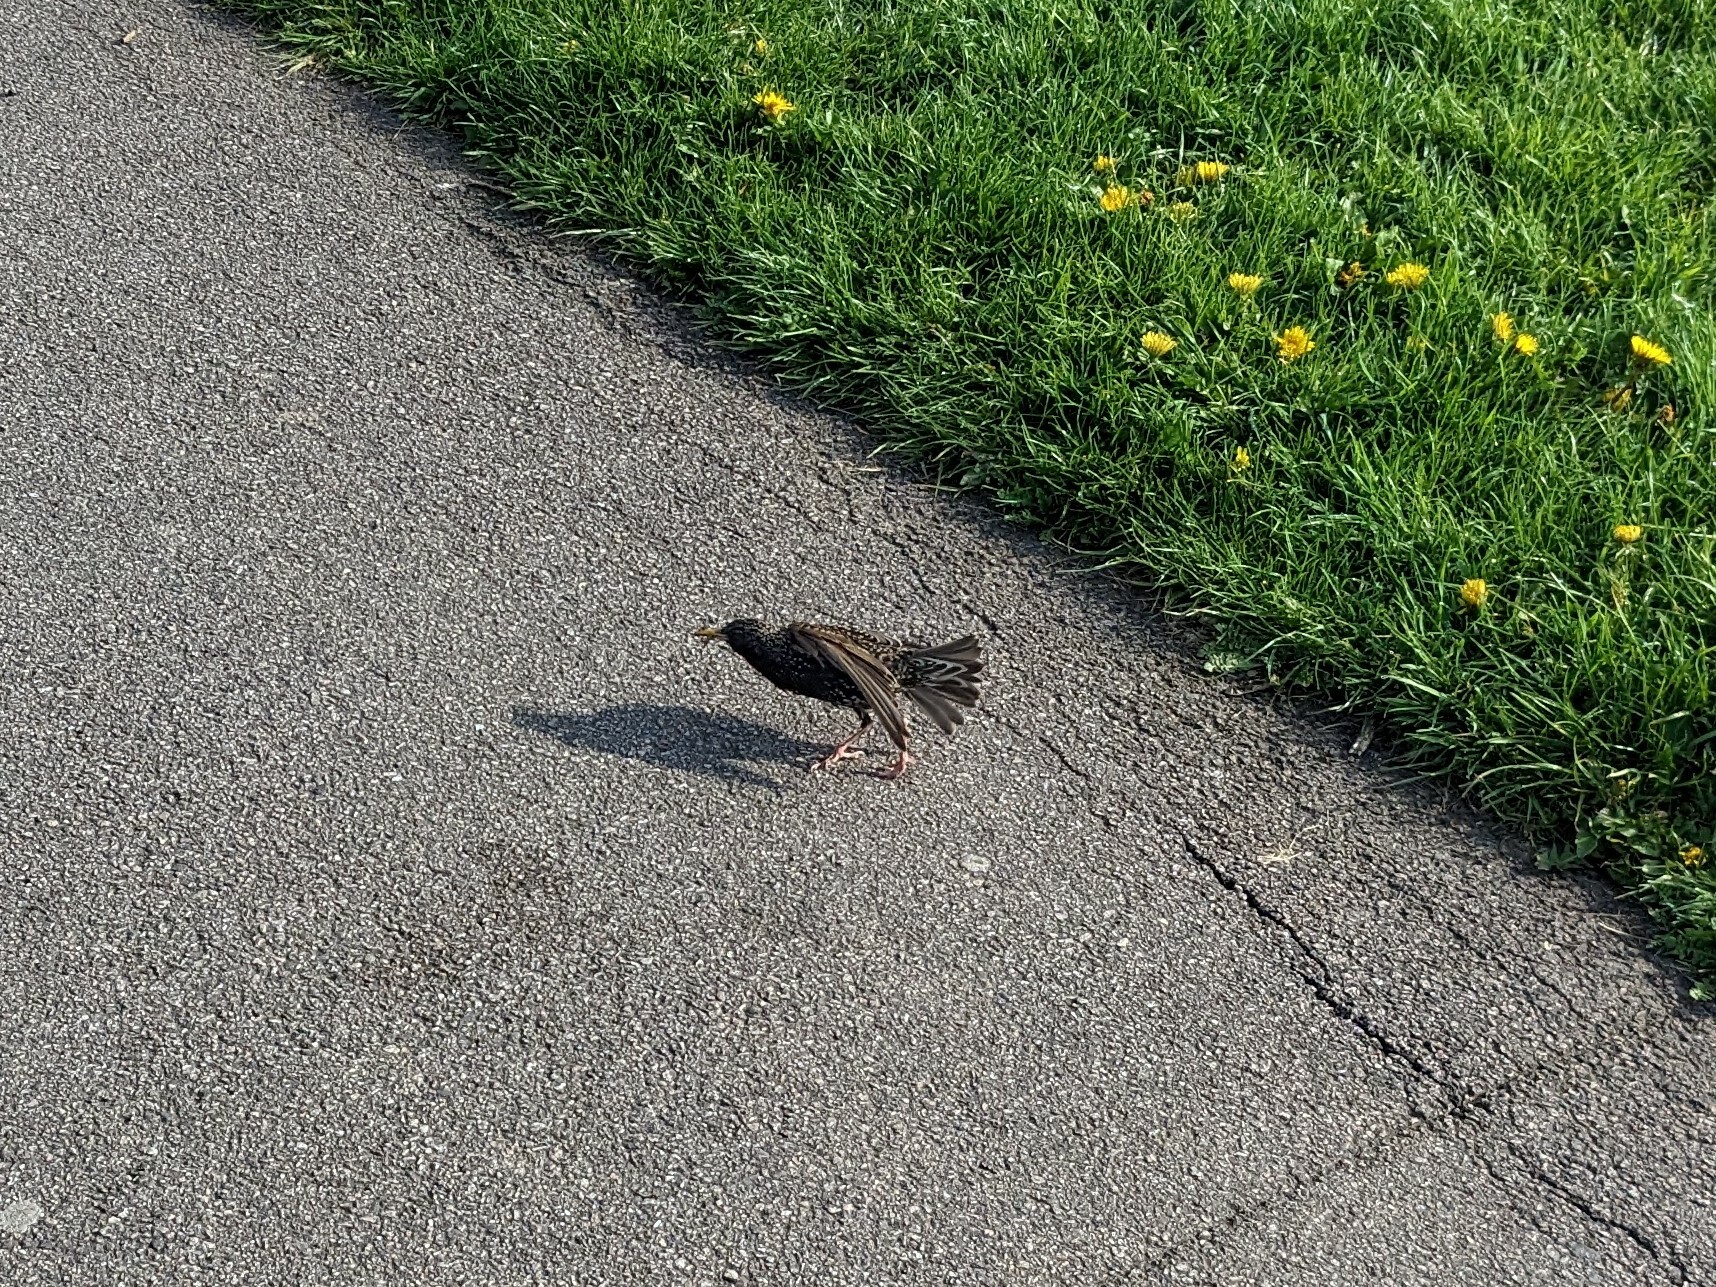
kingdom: Animalia
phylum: Chordata
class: Aves
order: Passeriformes
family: Sturnidae
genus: Sturnus
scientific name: Sturnus vulgaris
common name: Common starling
